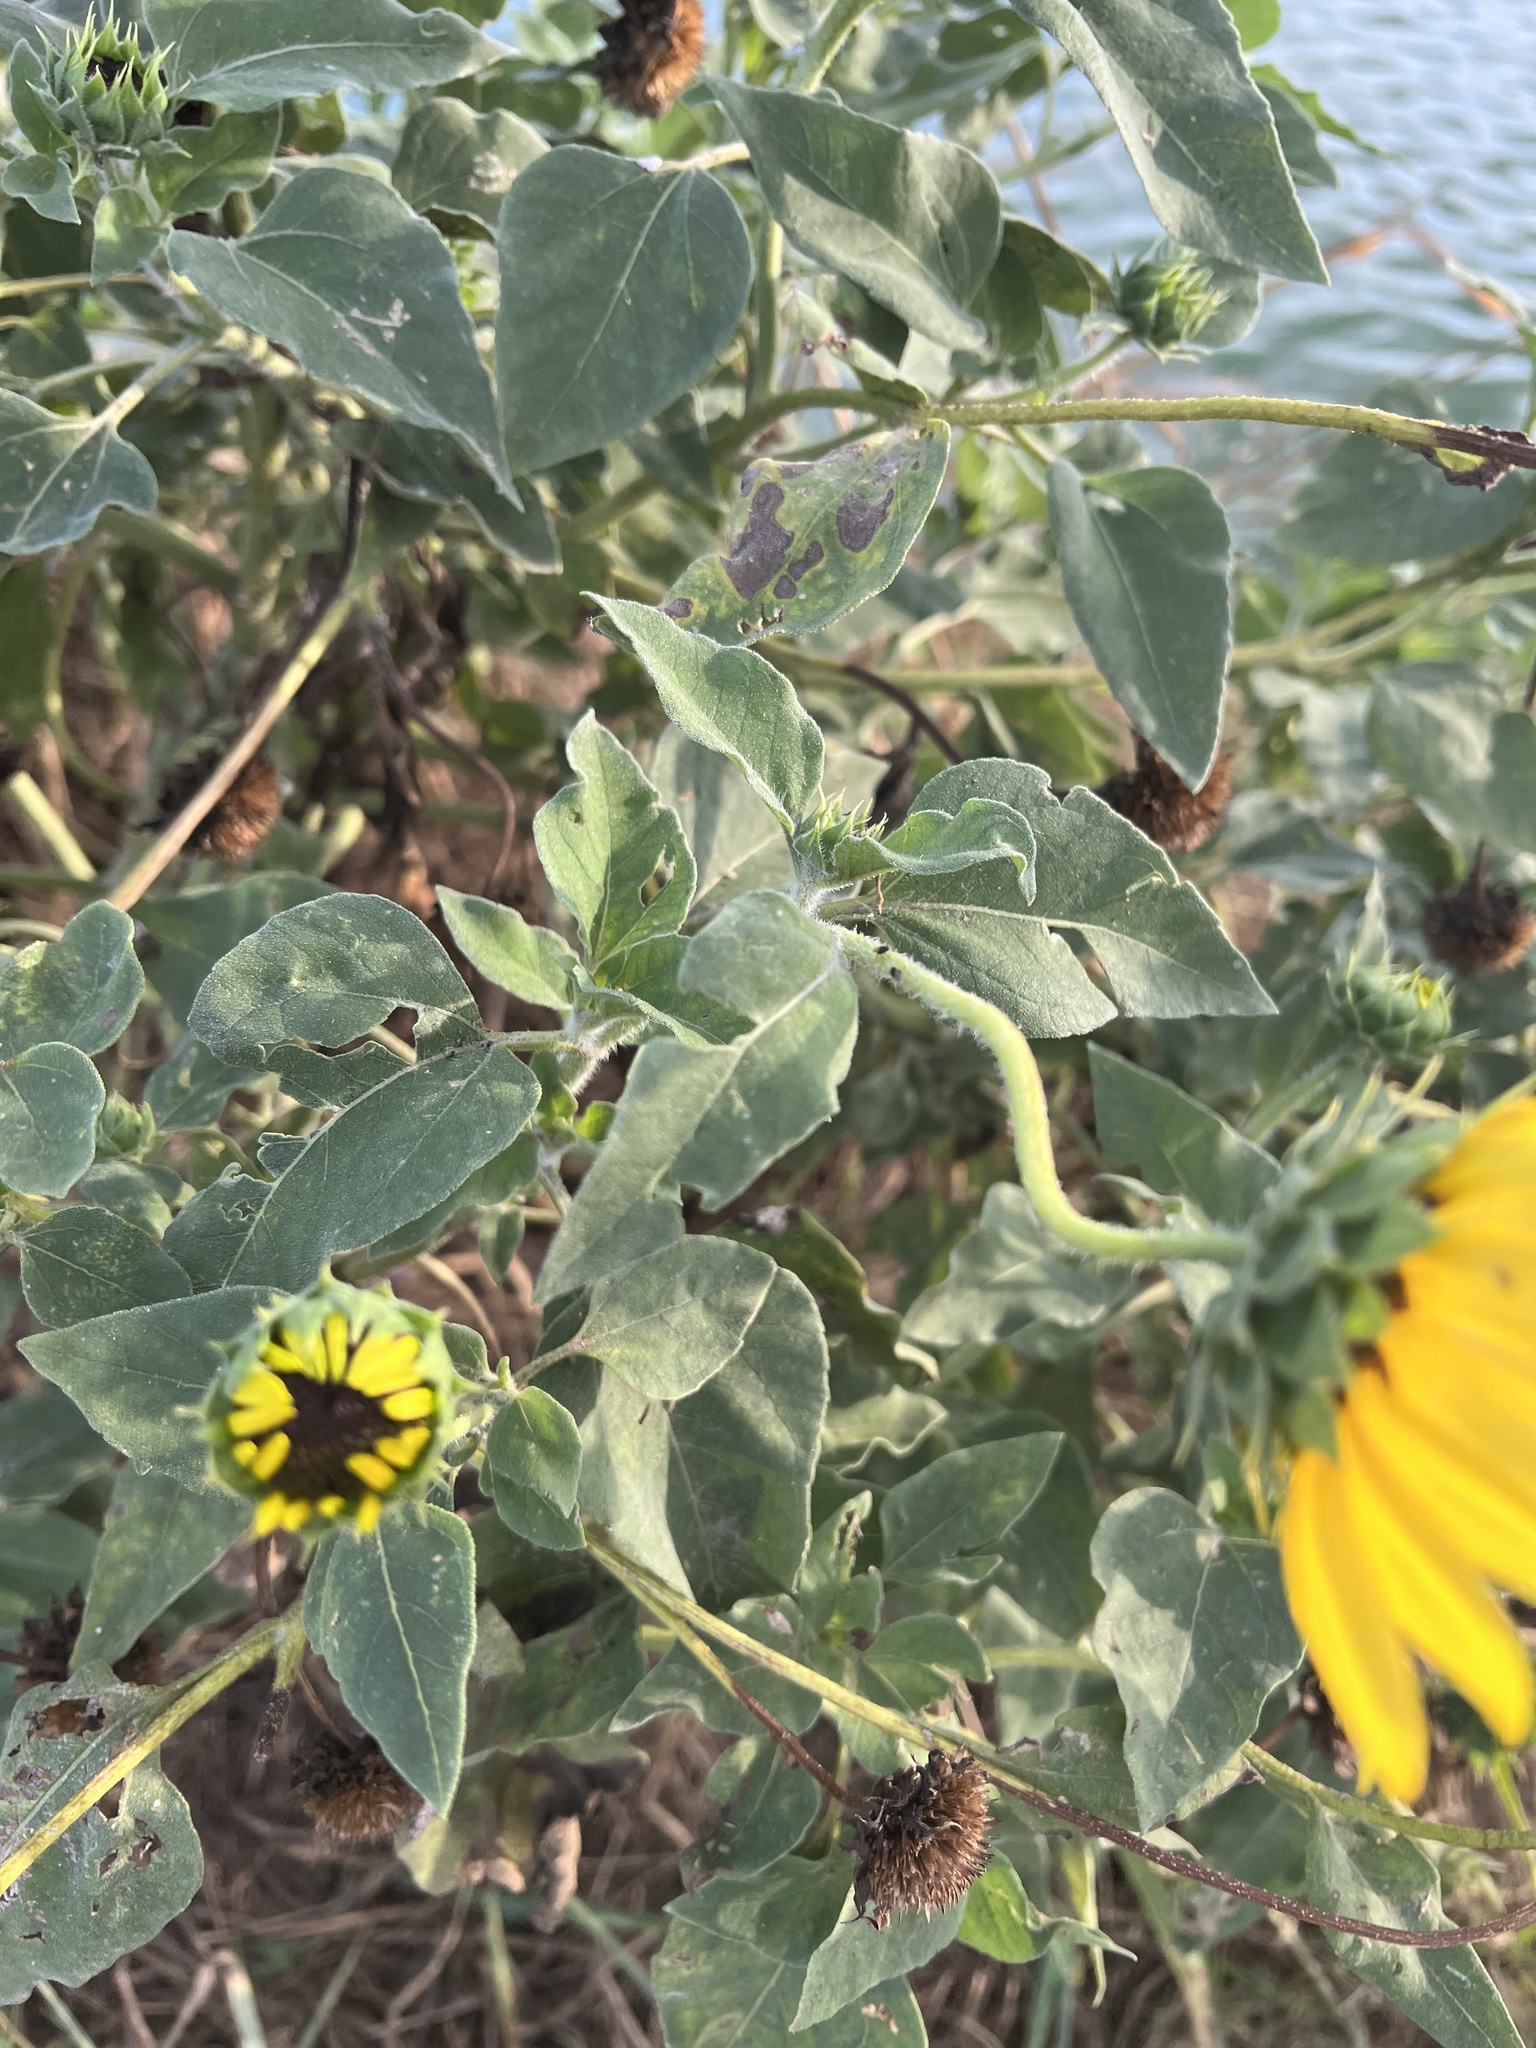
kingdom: Plantae
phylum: Tracheophyta
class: Magnoliopsida
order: Asterales
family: Asteraceae
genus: Helianthus
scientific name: Helianthus annuus
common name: Sunflower
